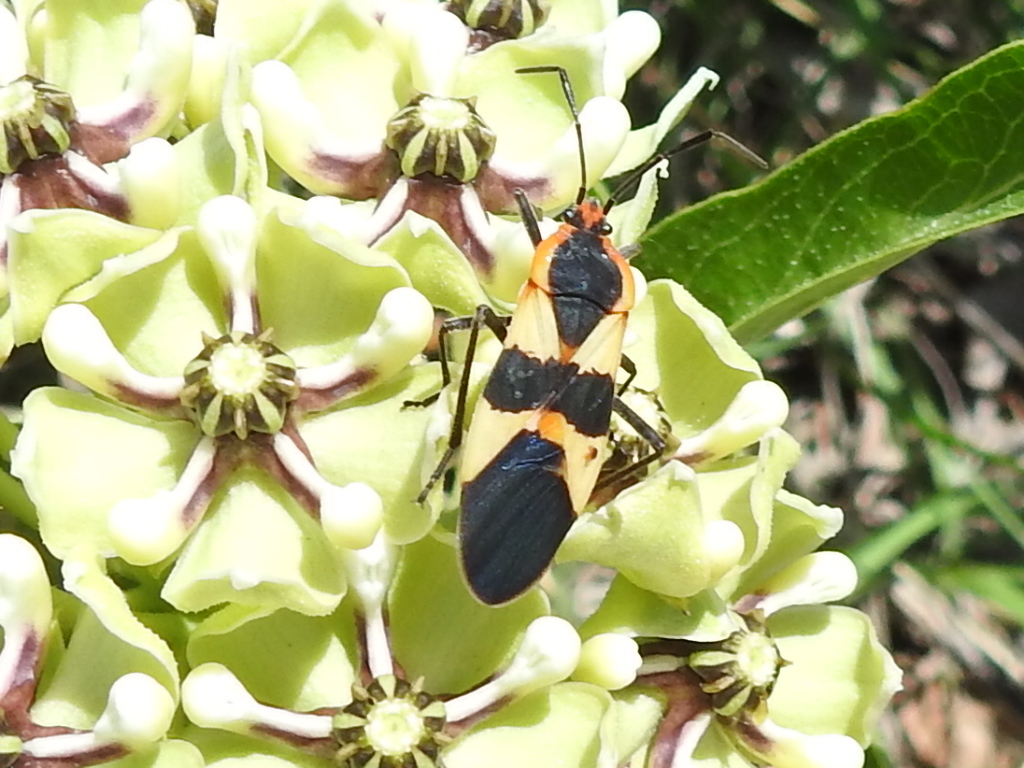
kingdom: Animalia
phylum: Arthropoda
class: Insecta
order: Hemiptera
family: Lygaeidae
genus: Oncopeltus
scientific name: Oncopeltus fasciatus
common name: Large milkweed bug
